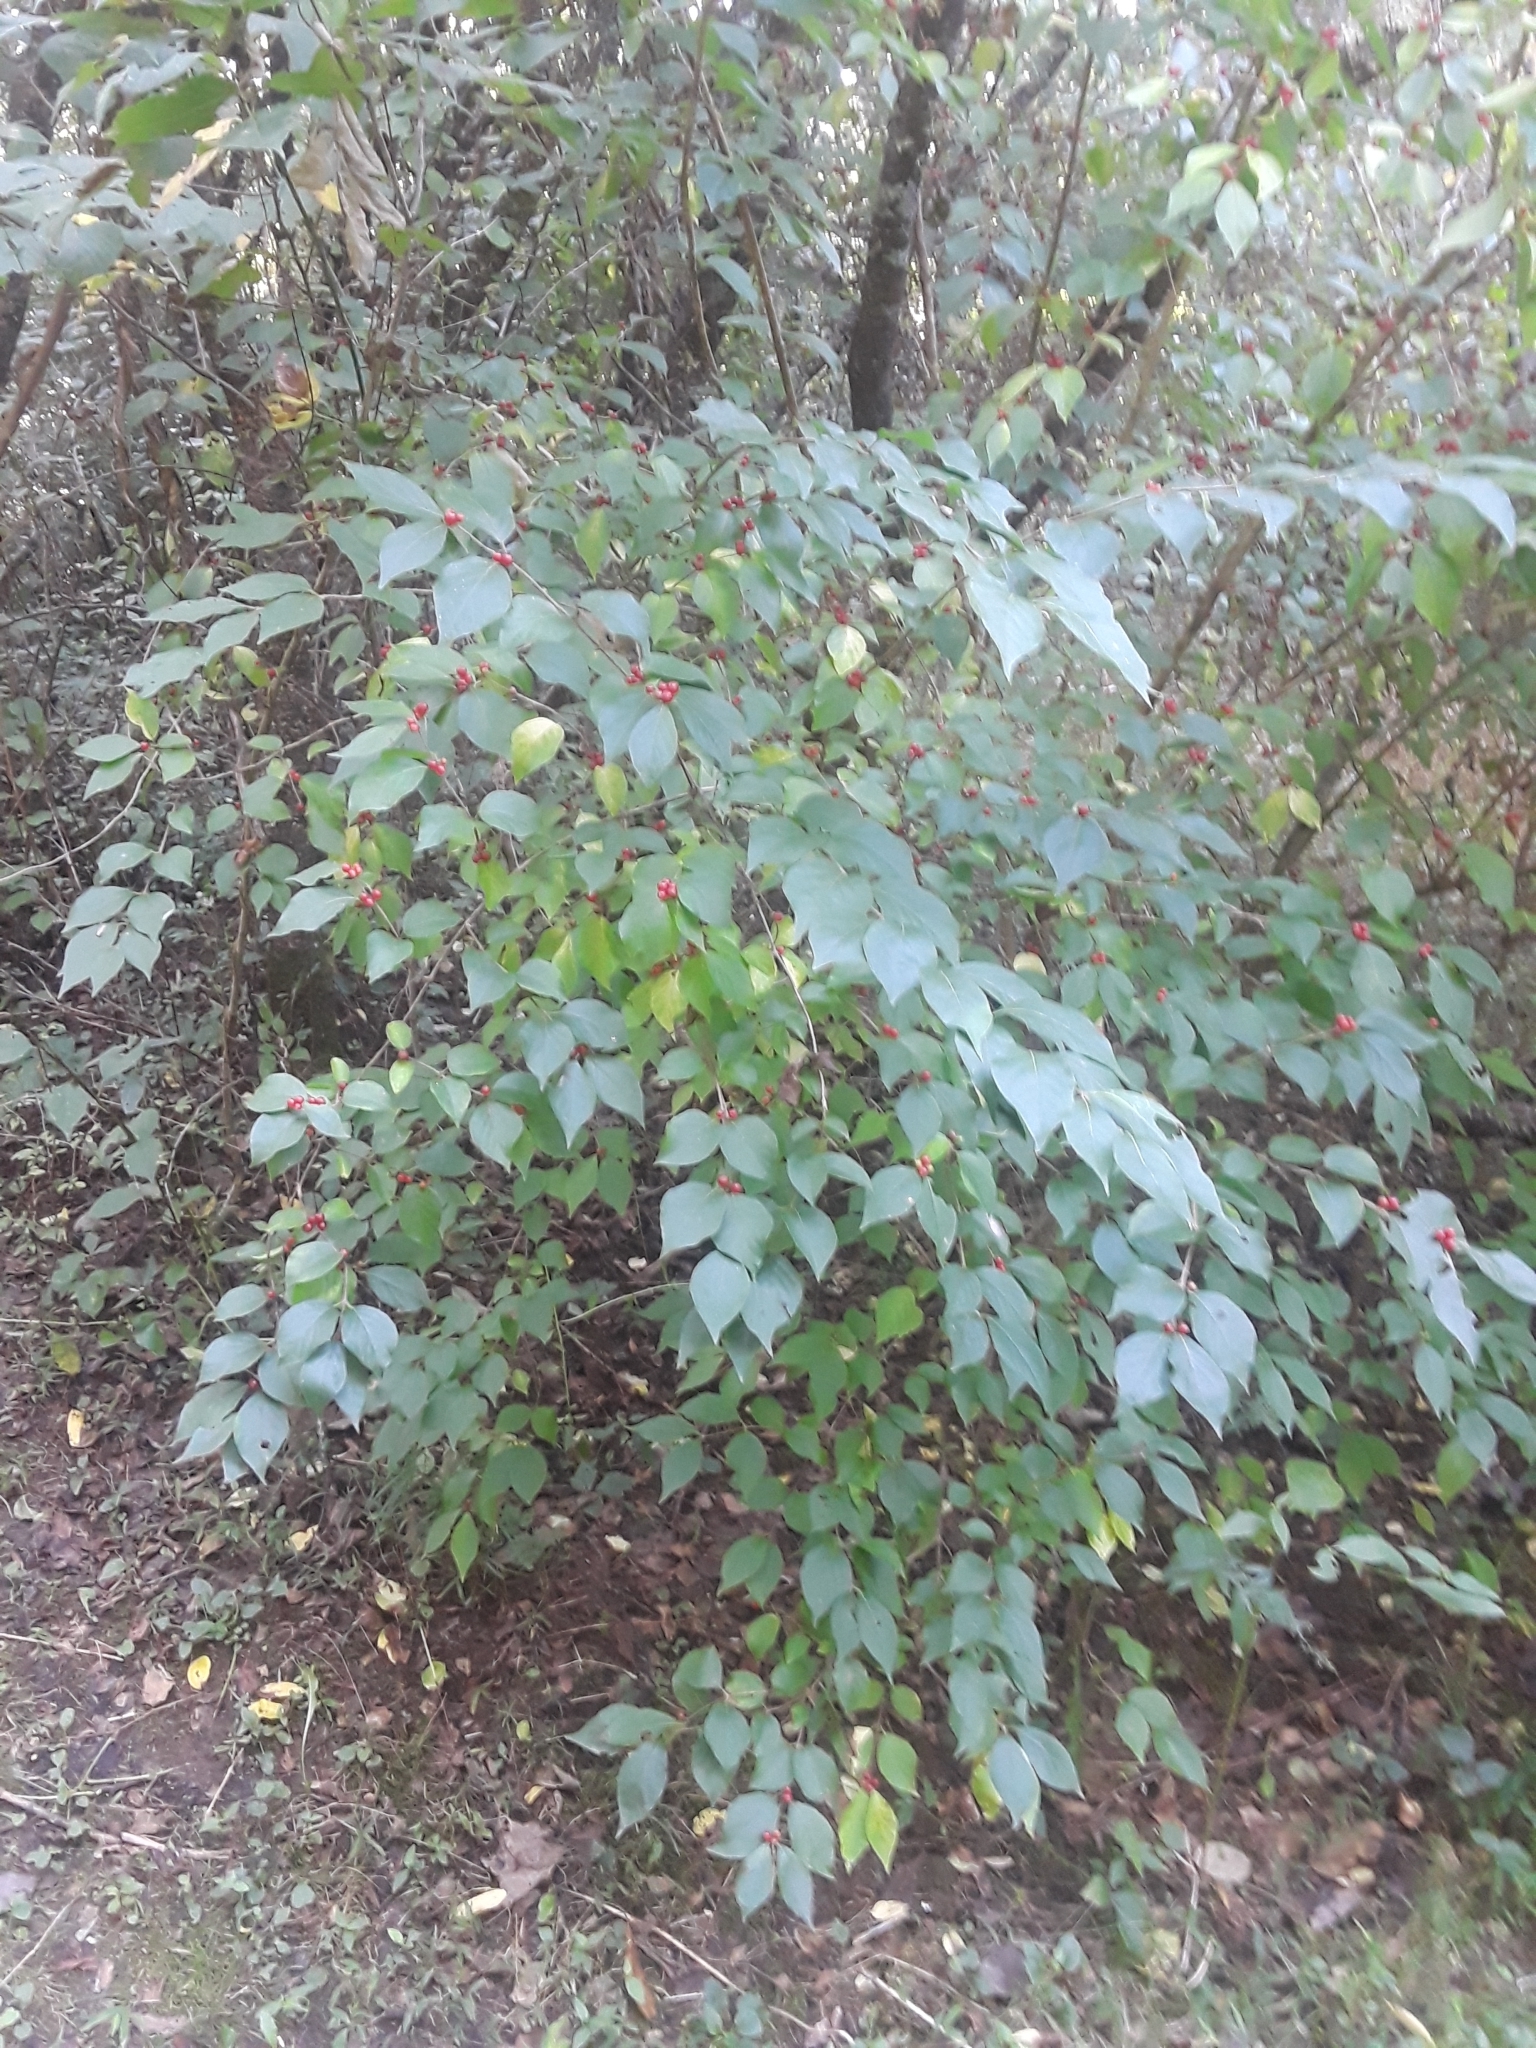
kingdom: Plantae
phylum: Tracheophyta
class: Magnoliopsida
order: Dipsacales
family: Caprifoliaceae
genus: Lonicera
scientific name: Lonicera maackii
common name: Amur honeysuckle
